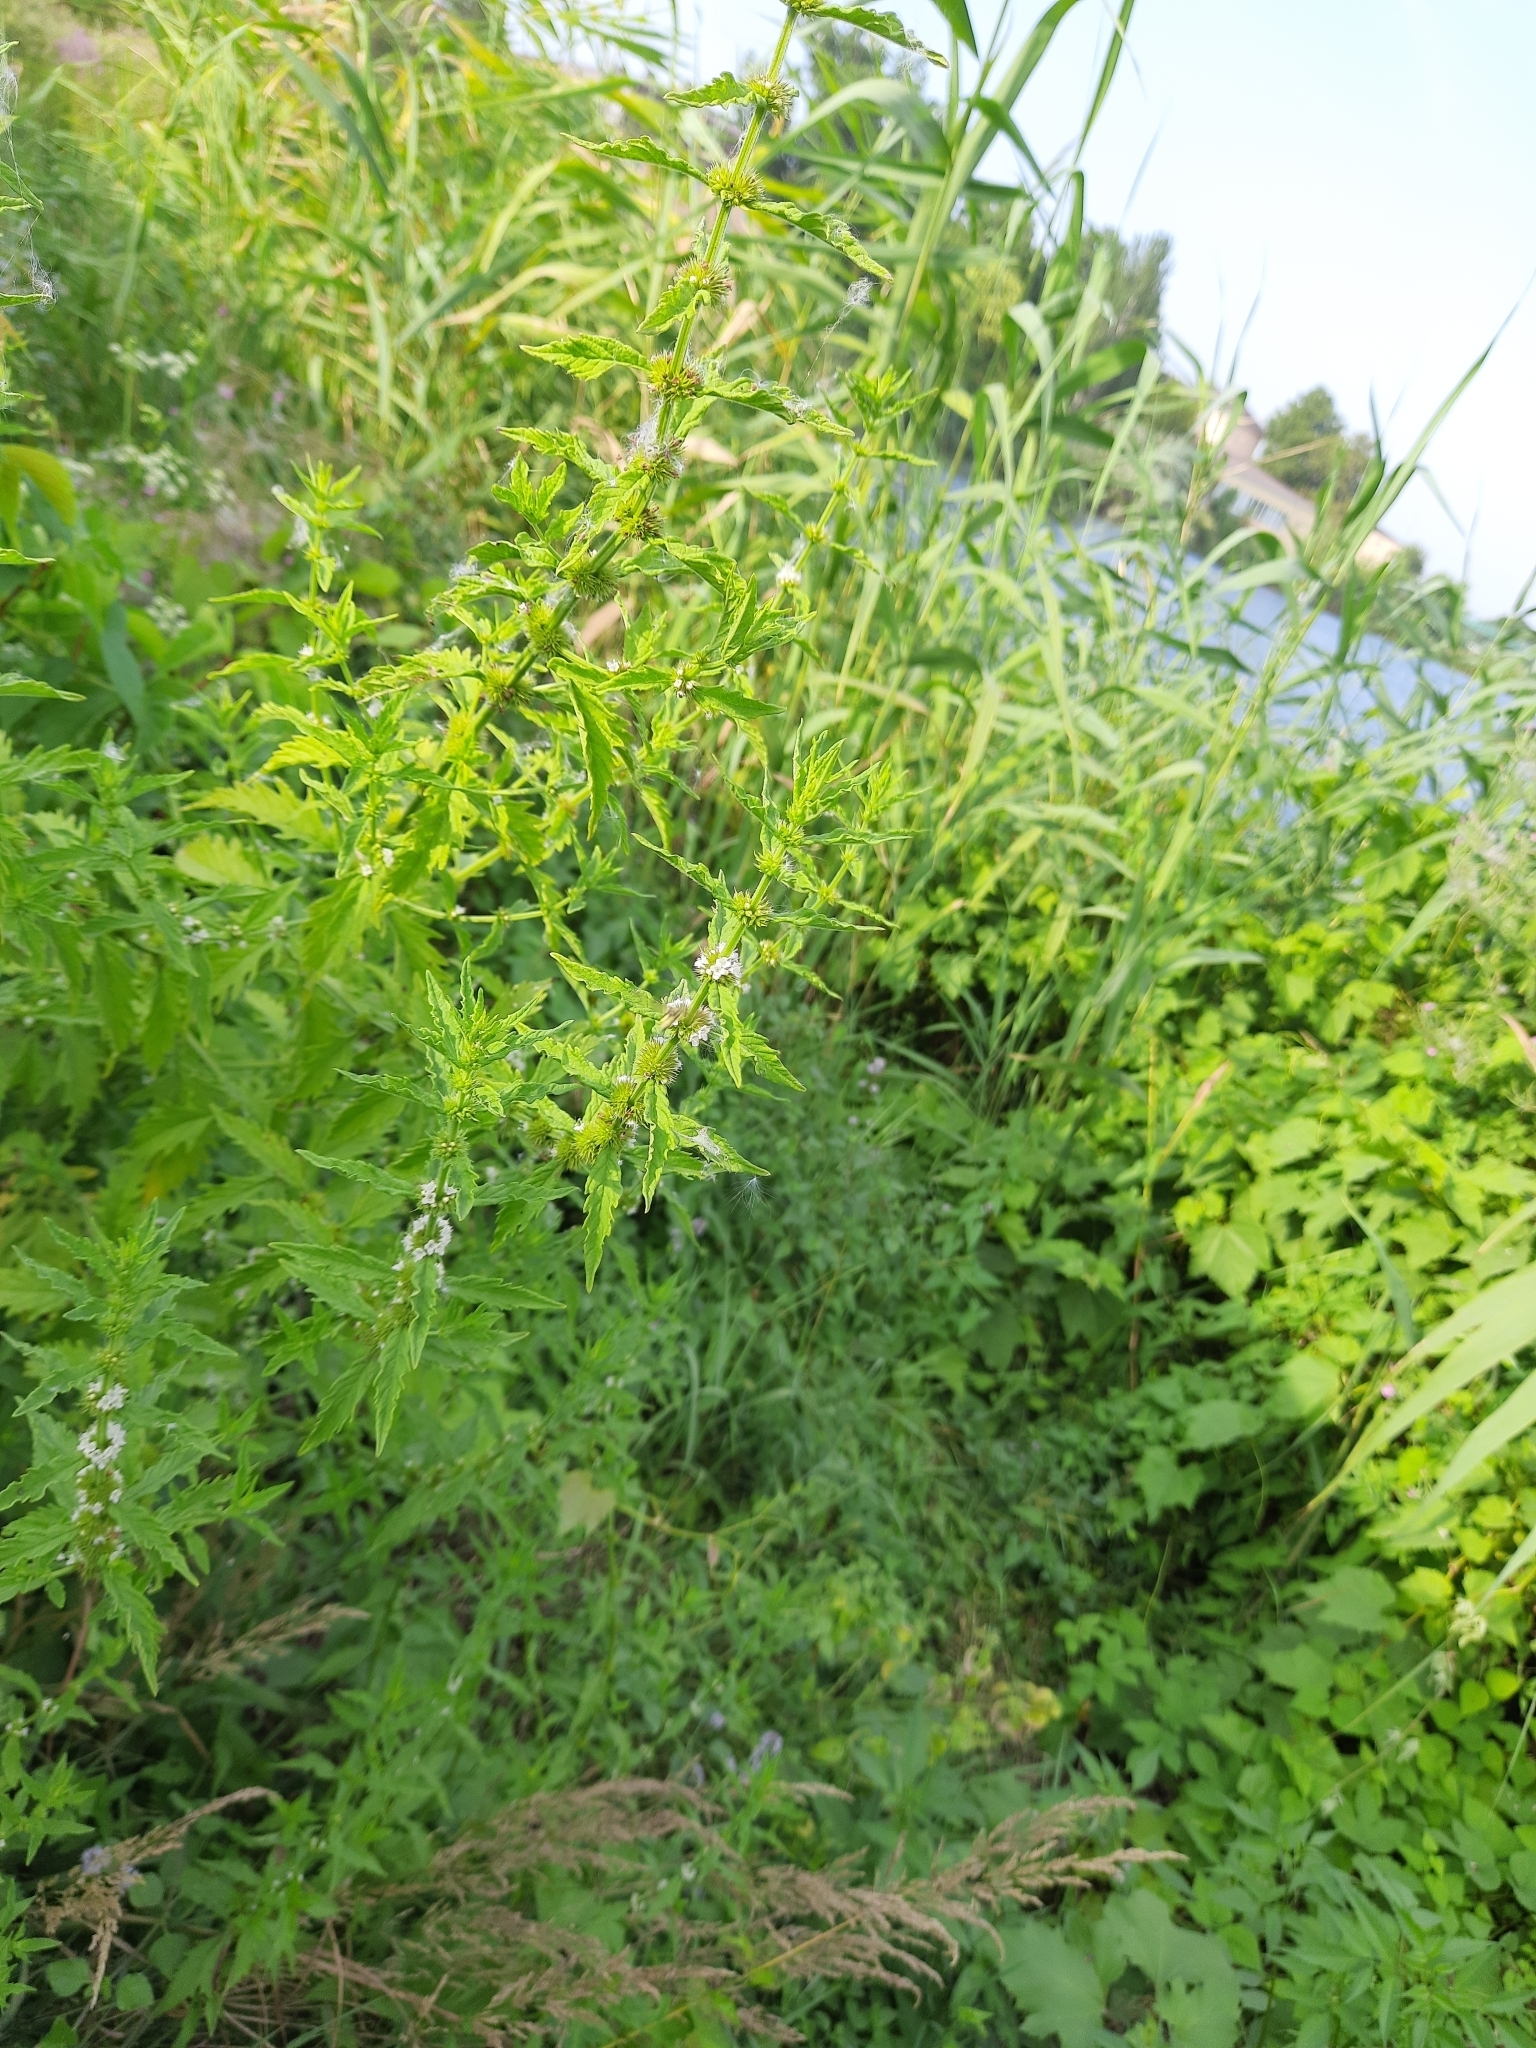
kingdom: Plantae
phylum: Tracheophyta
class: Magnoliopsida
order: Lamiales
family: Lamiaceae
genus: Lycopus
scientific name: Lycopus europaeus
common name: European bugleweed
